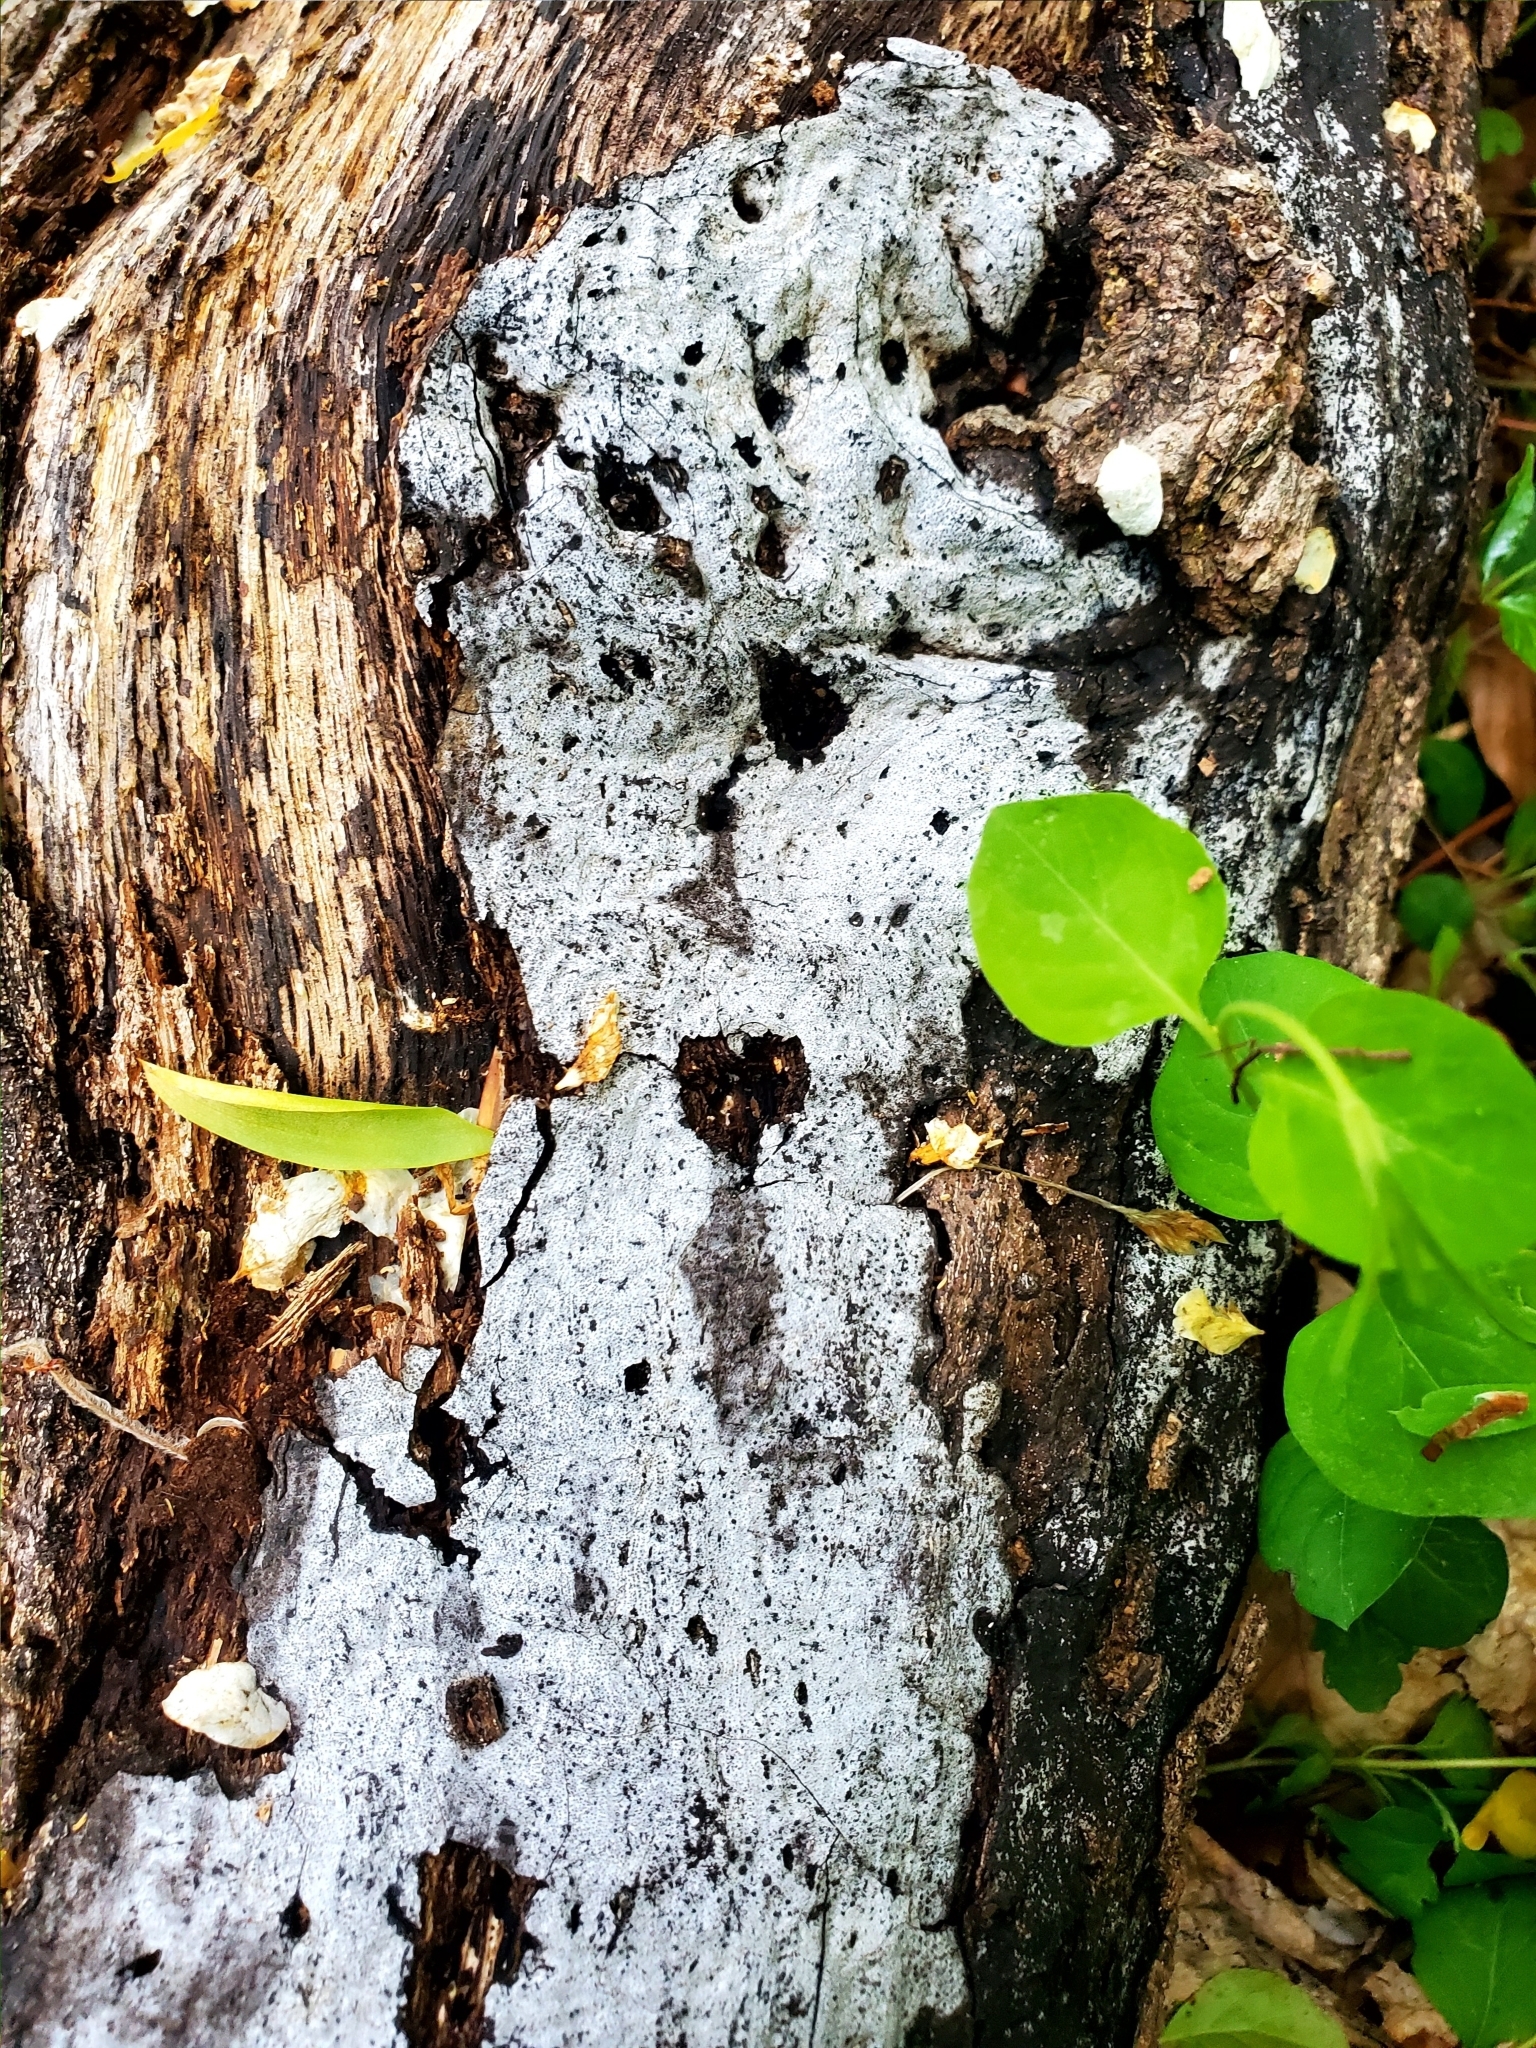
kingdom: Fungi
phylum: Ascomycota
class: Sordariomycetes
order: Xylariales
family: Graphostromataceae
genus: Biscogniauxia
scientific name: Biscogniauxia atropunctata
